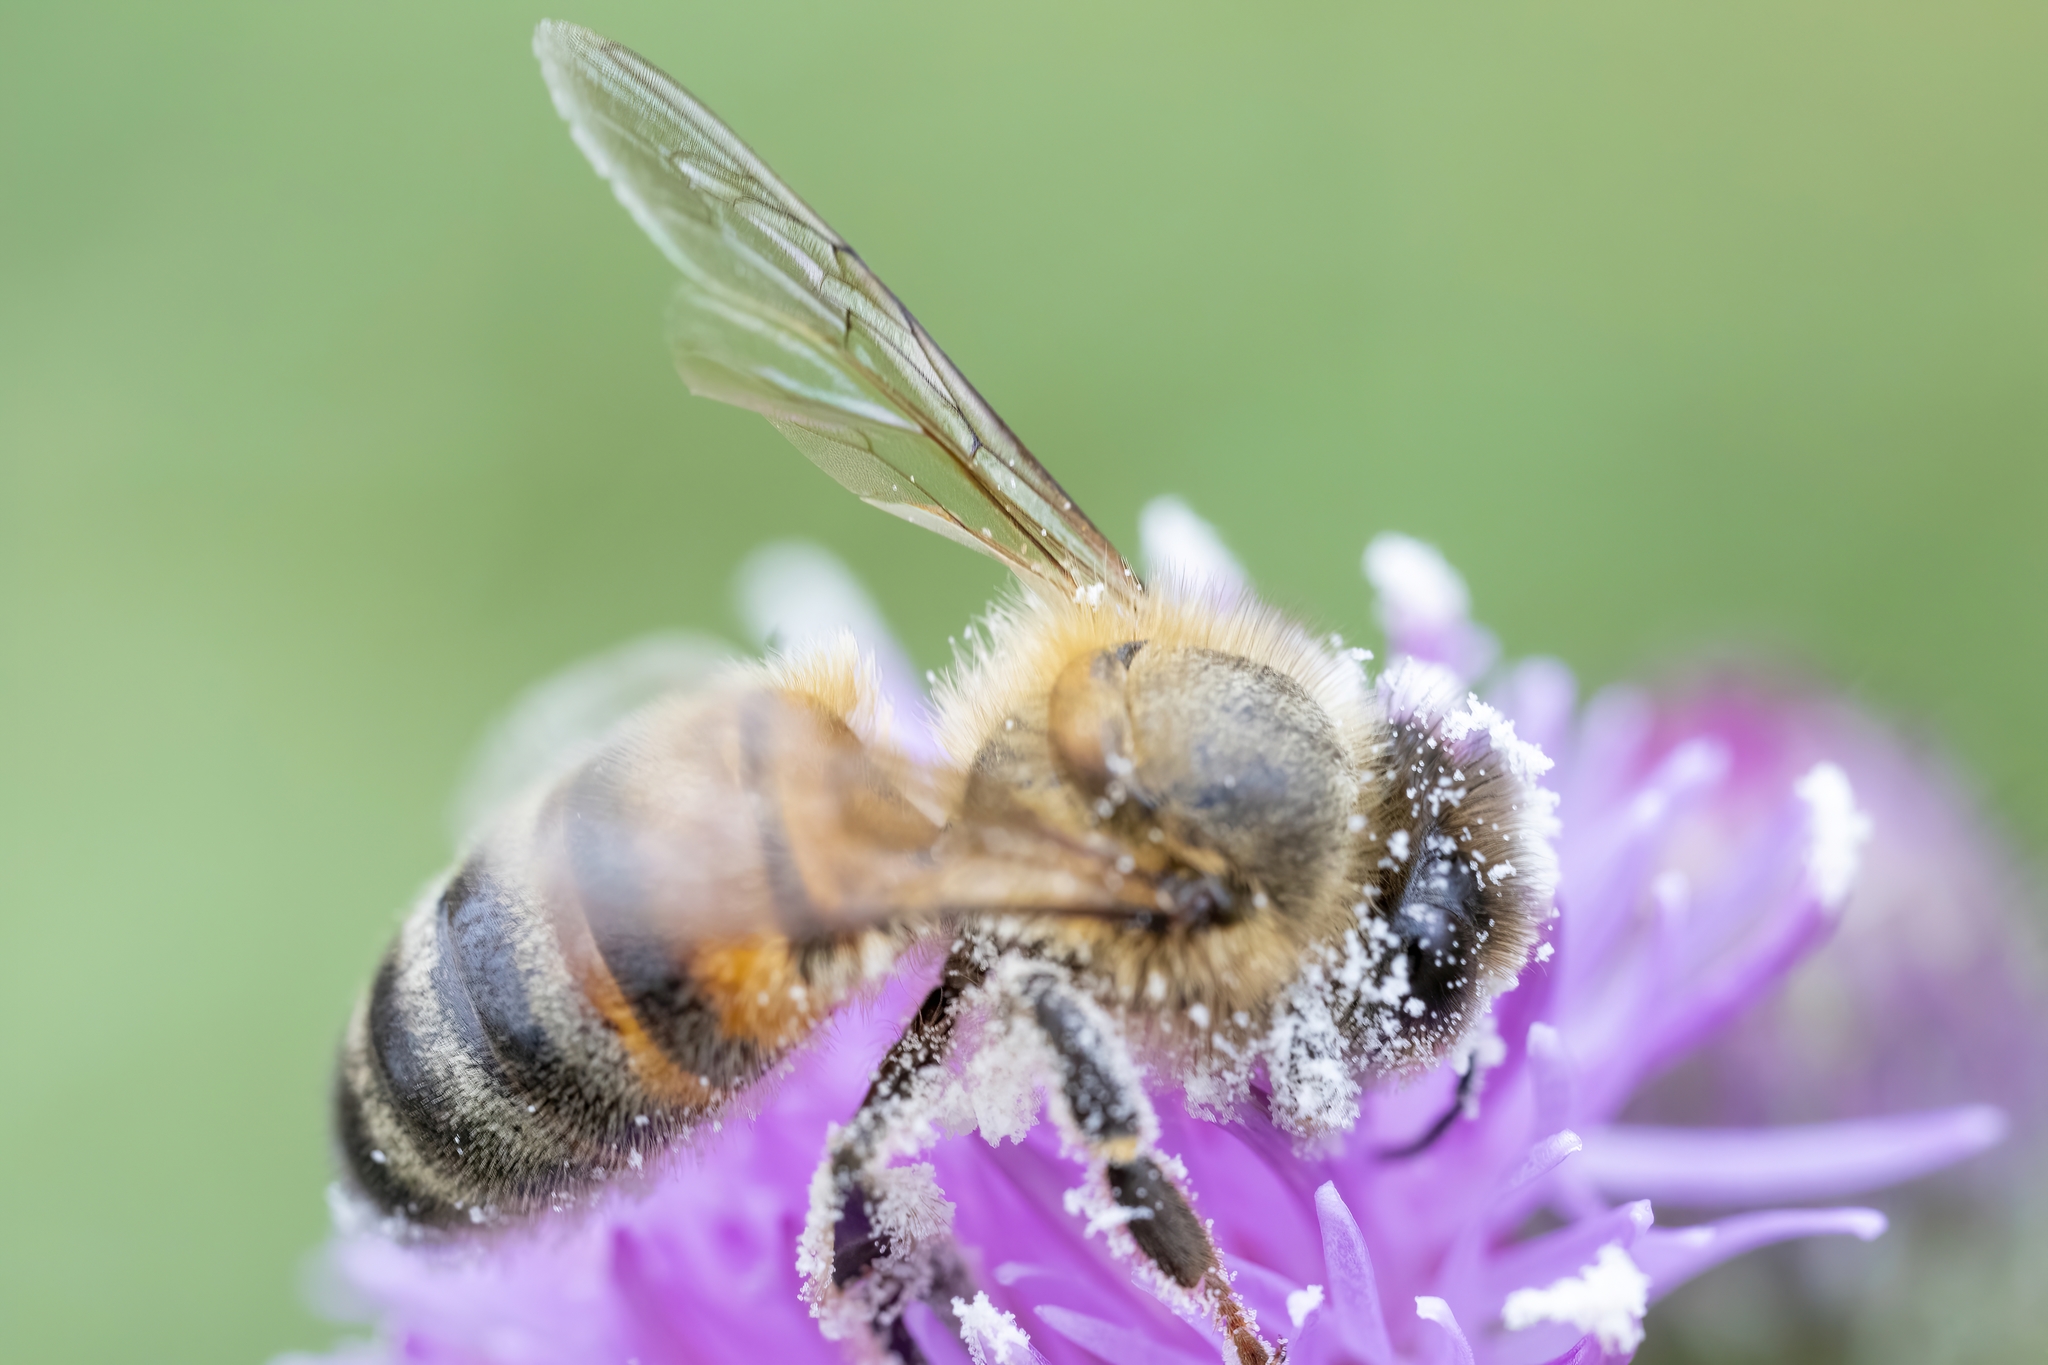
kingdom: Animalia
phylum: Arthropoda
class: Insecta
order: Hymenoptera
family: Apidae
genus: Apis
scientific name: Apis mellifera
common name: Honey bee
